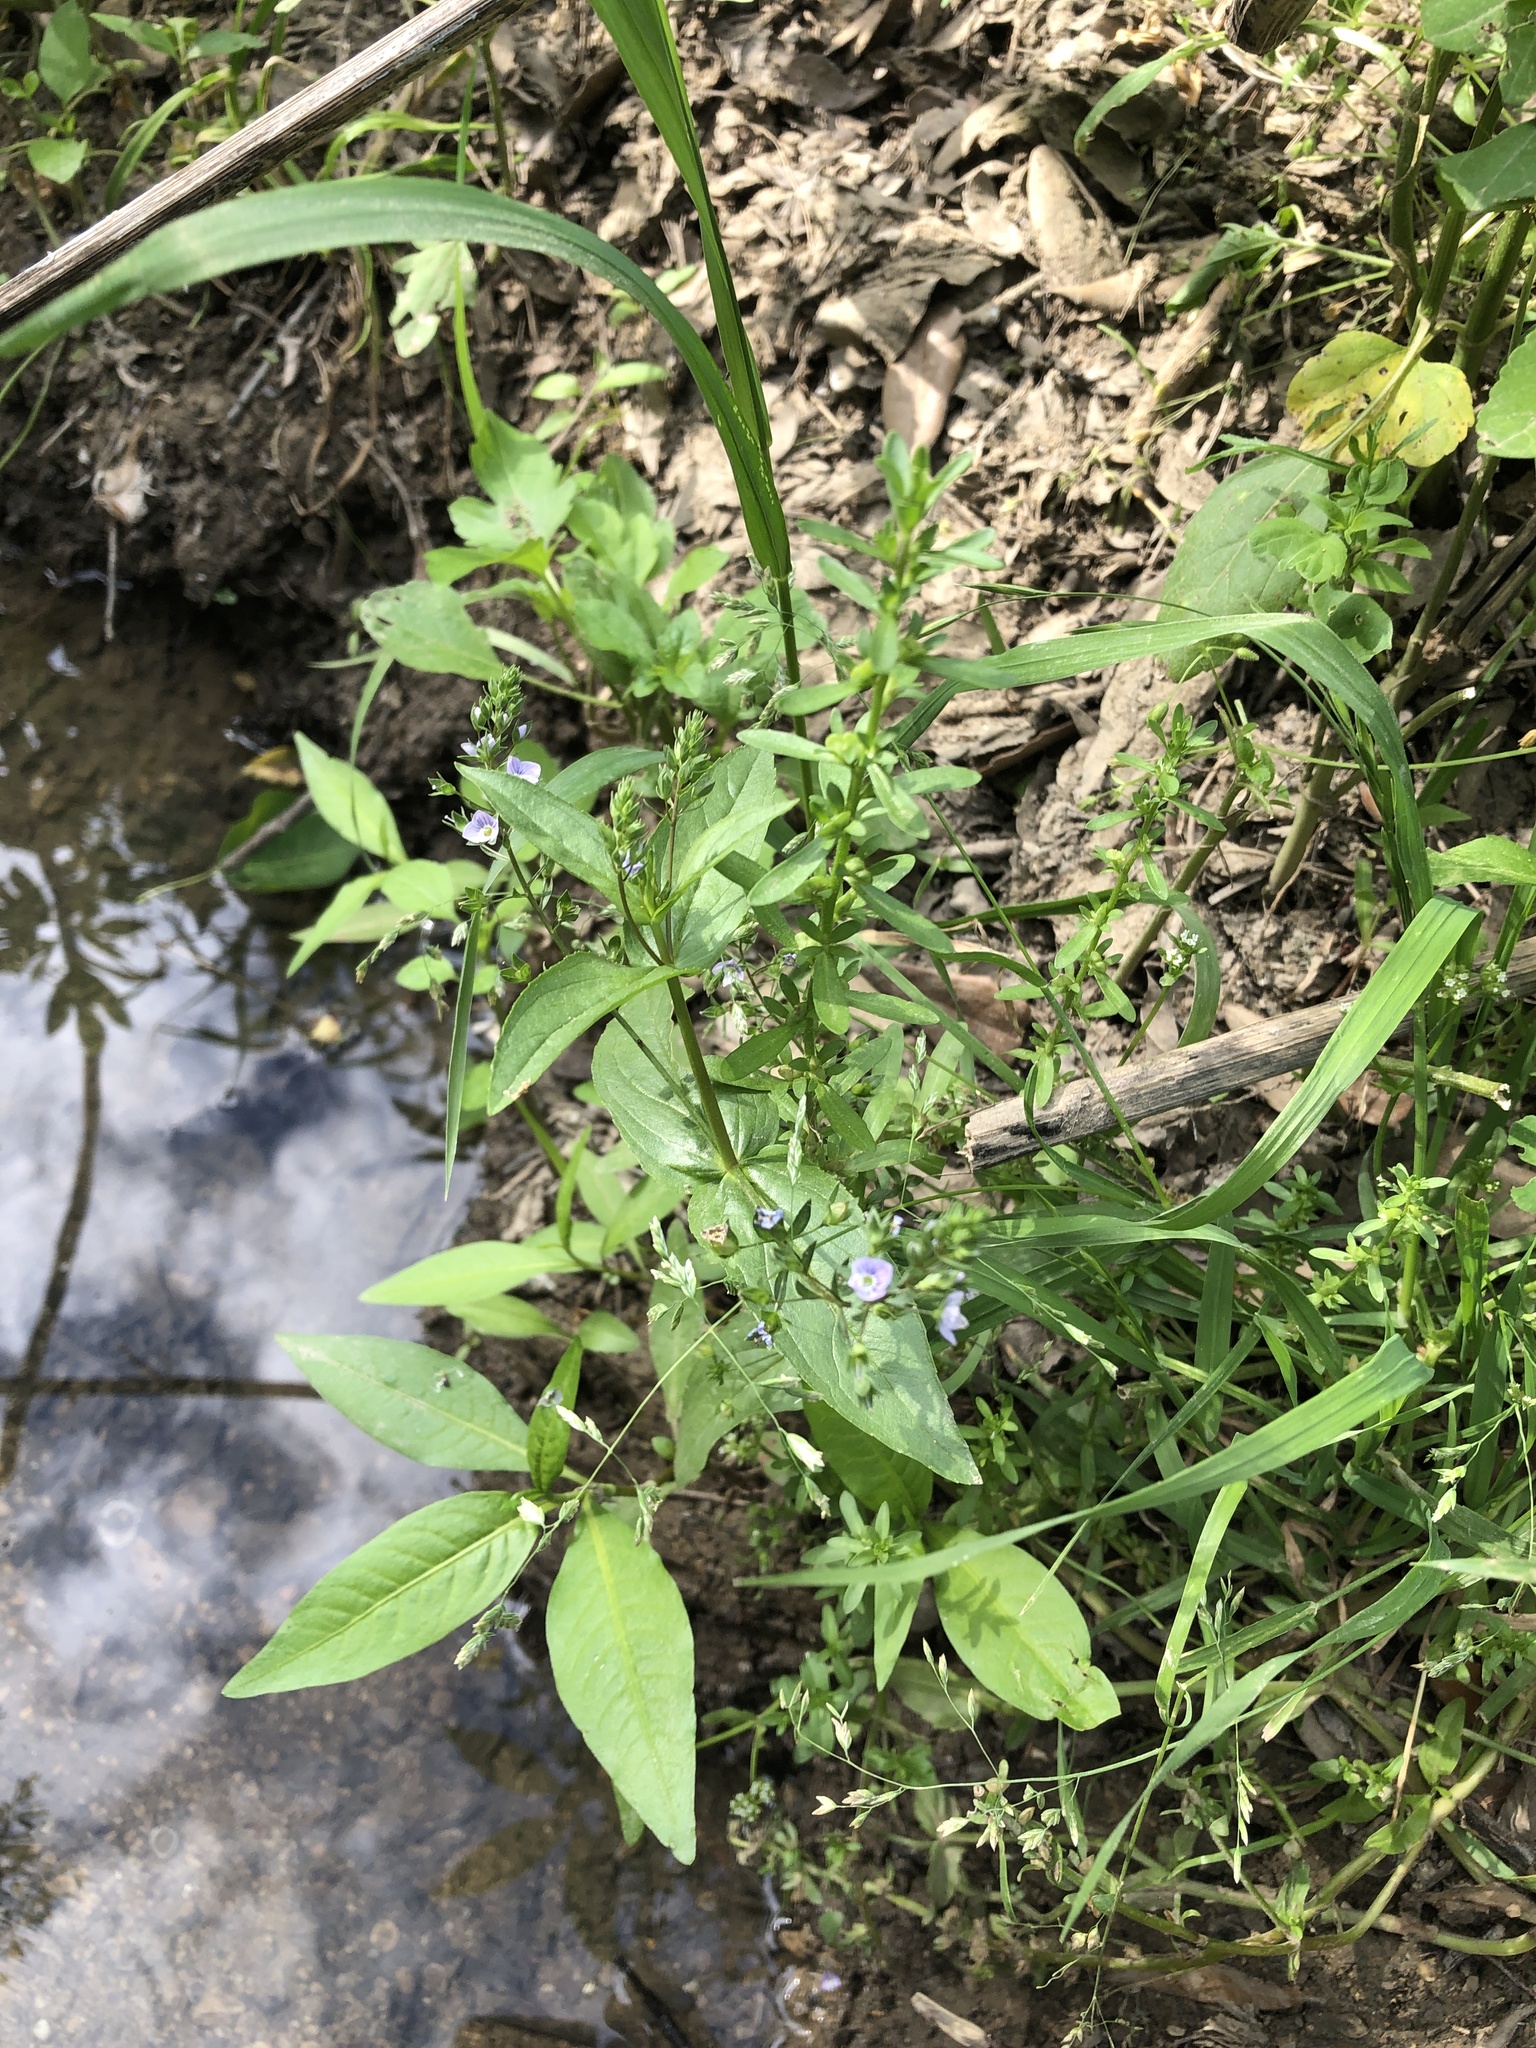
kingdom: Plantae
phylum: Tracheophyta
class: Magnoliopsida
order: Lamiales
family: Plantaginaceae
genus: Veronica
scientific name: Veronica anagallis-aquatica
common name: Water speedwell
